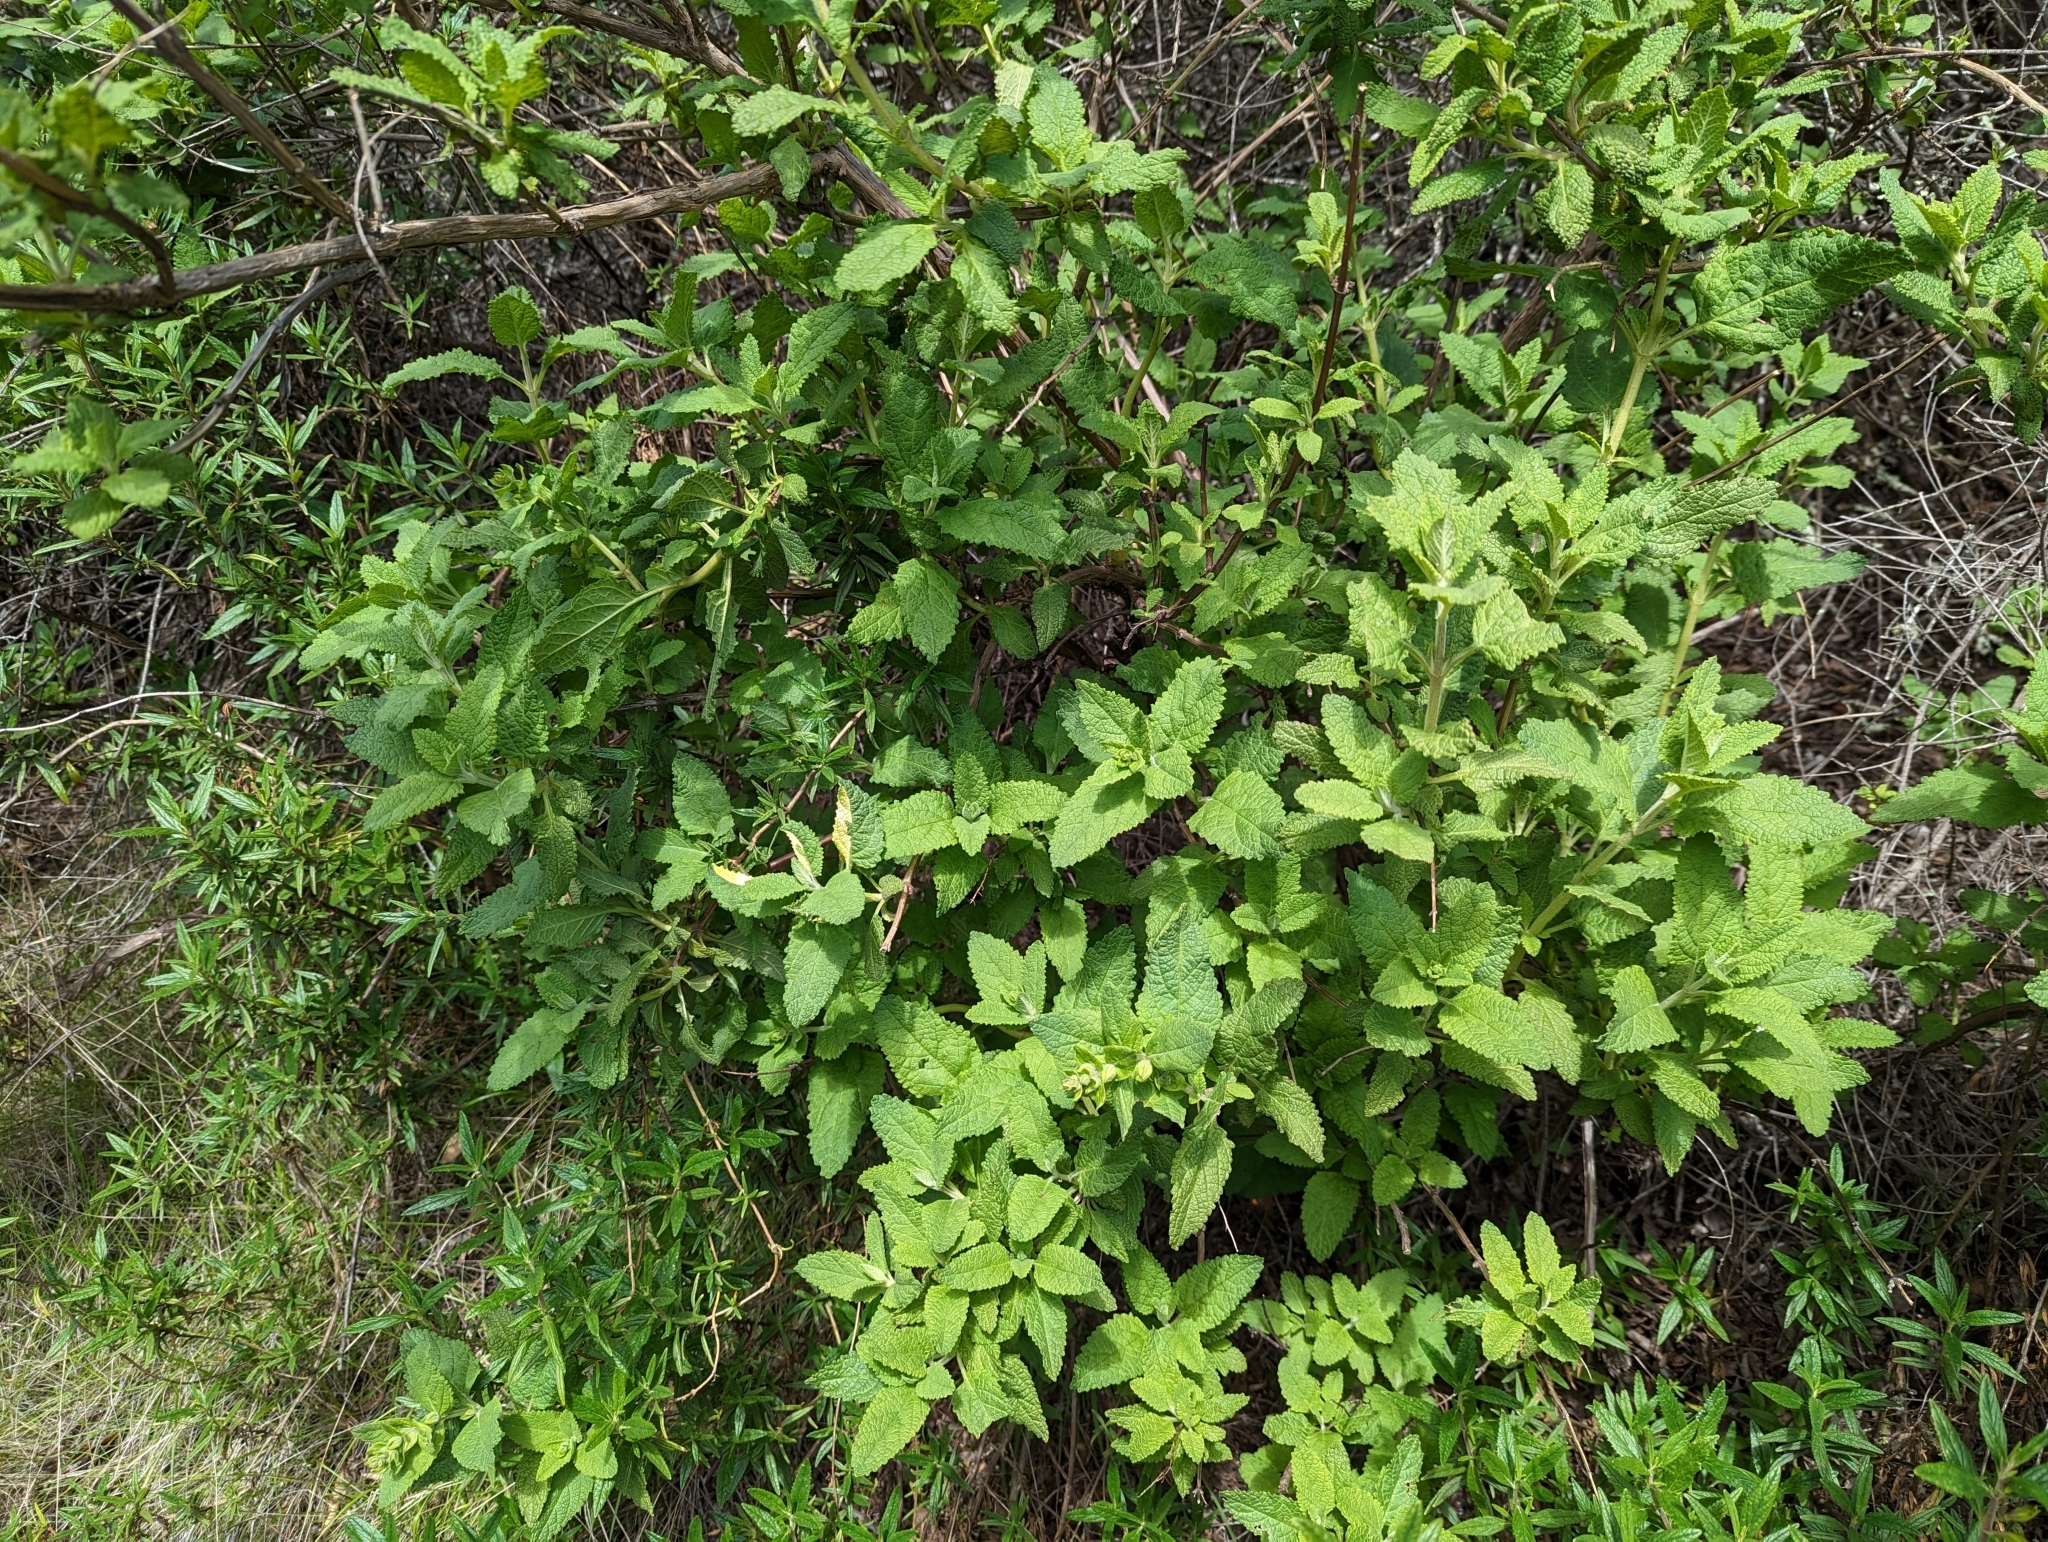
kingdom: Plantae
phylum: Tracheophyta
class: Magnoliopsida
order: Lamiales
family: Lamiaceae
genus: Lepechinia
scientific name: Lepechinia calycina
